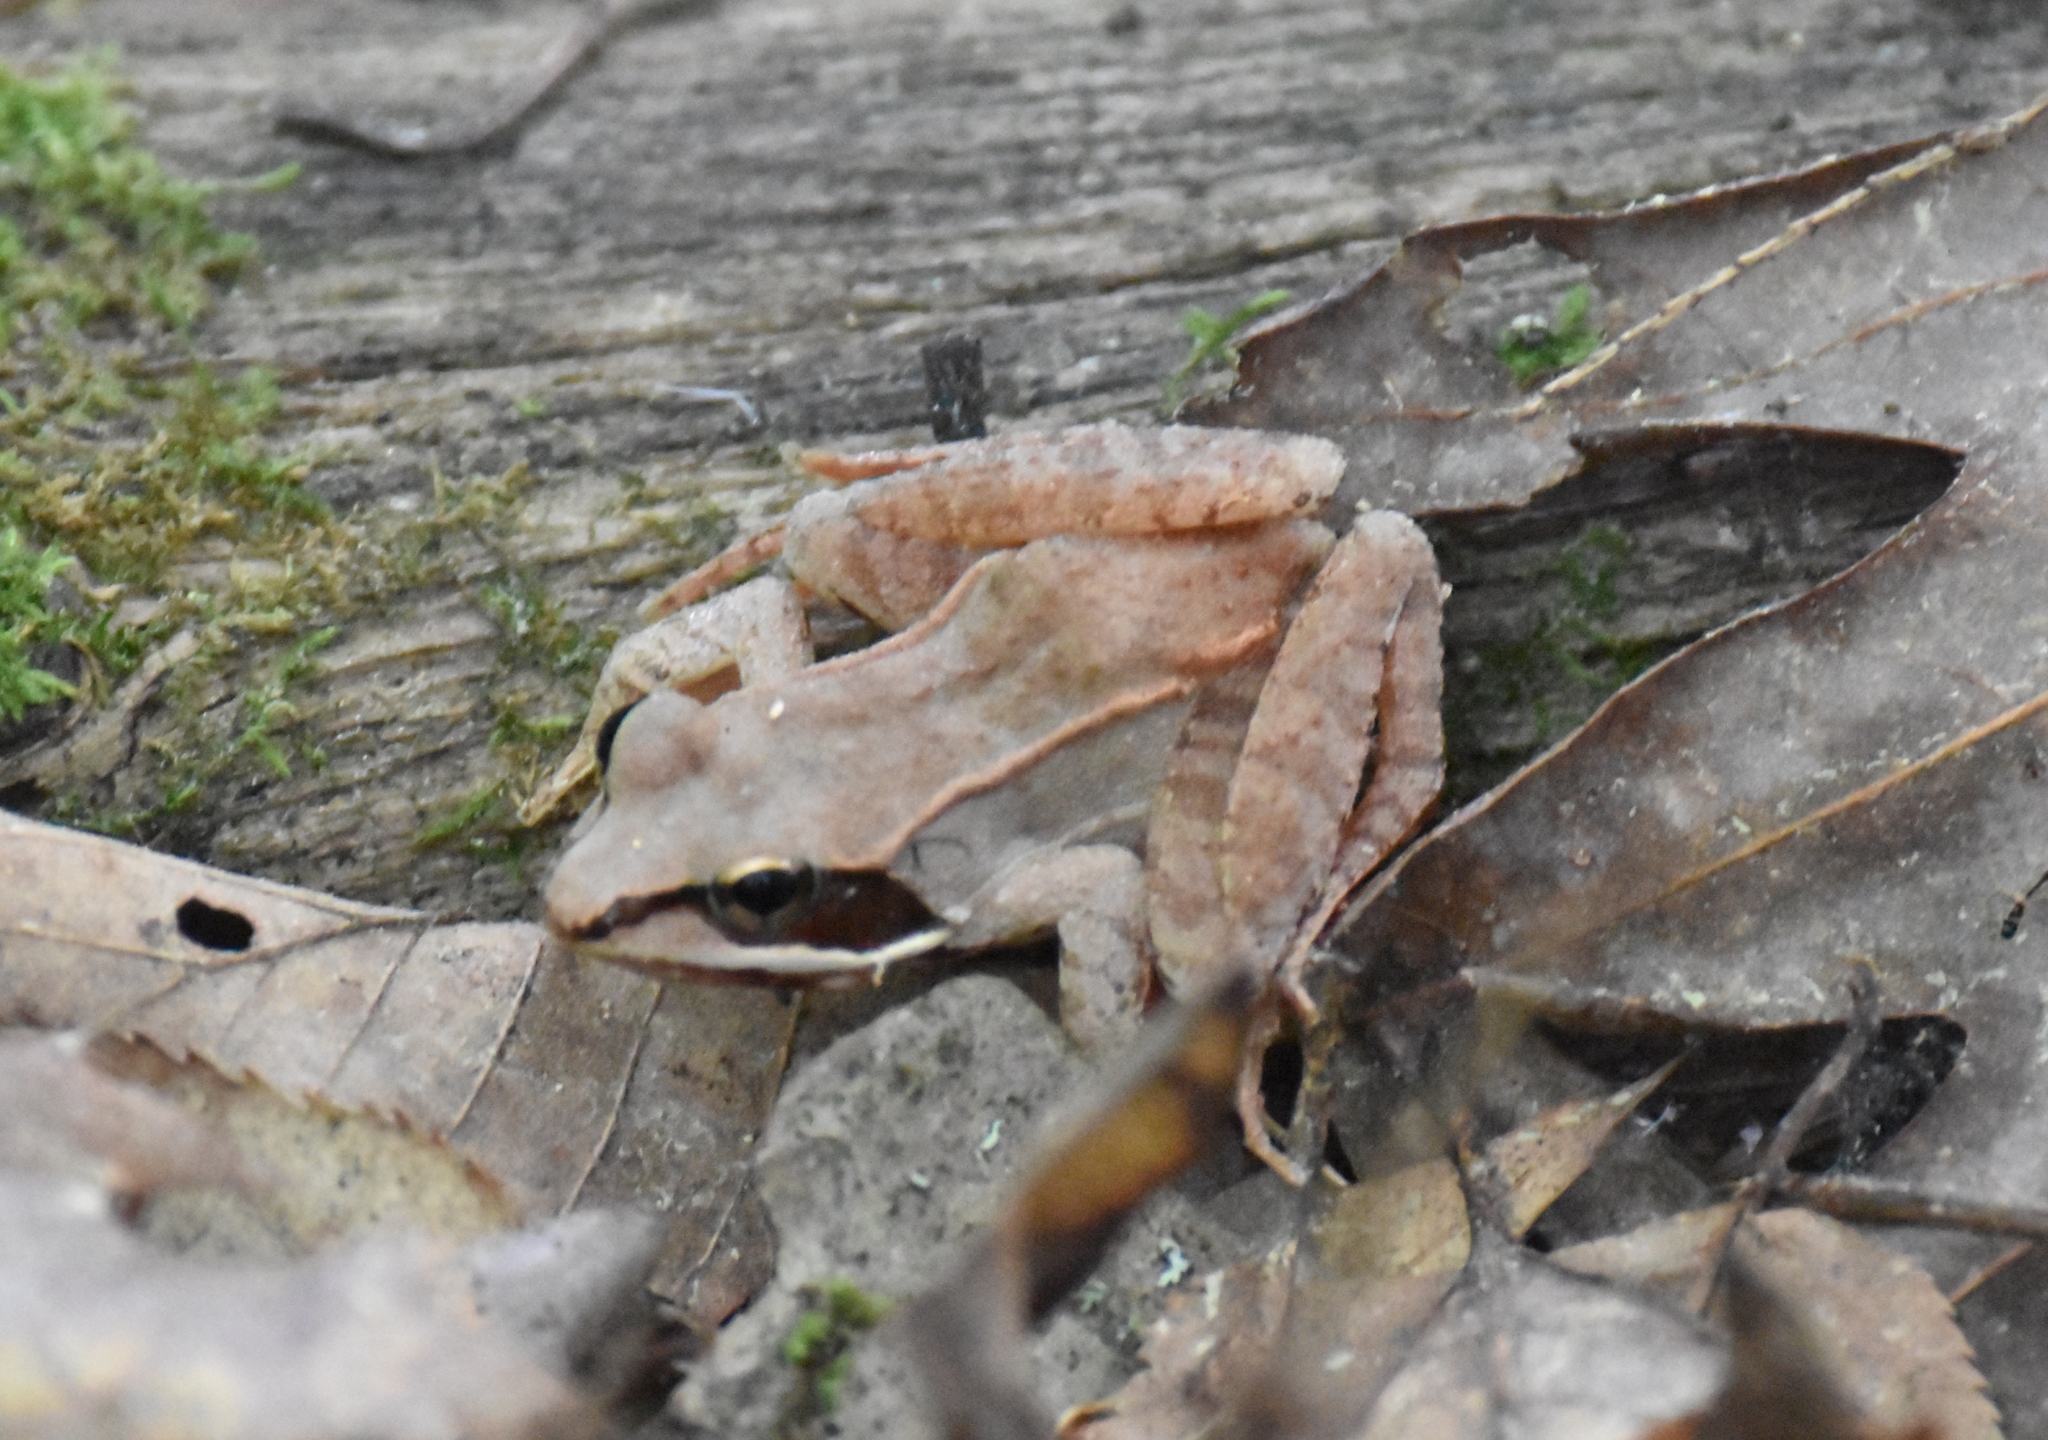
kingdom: Animalia
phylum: Chordata
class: Amphibia
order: Anura
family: Ranidae
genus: Lithobates
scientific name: Lithobates sylvaticus
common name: Wood frog
